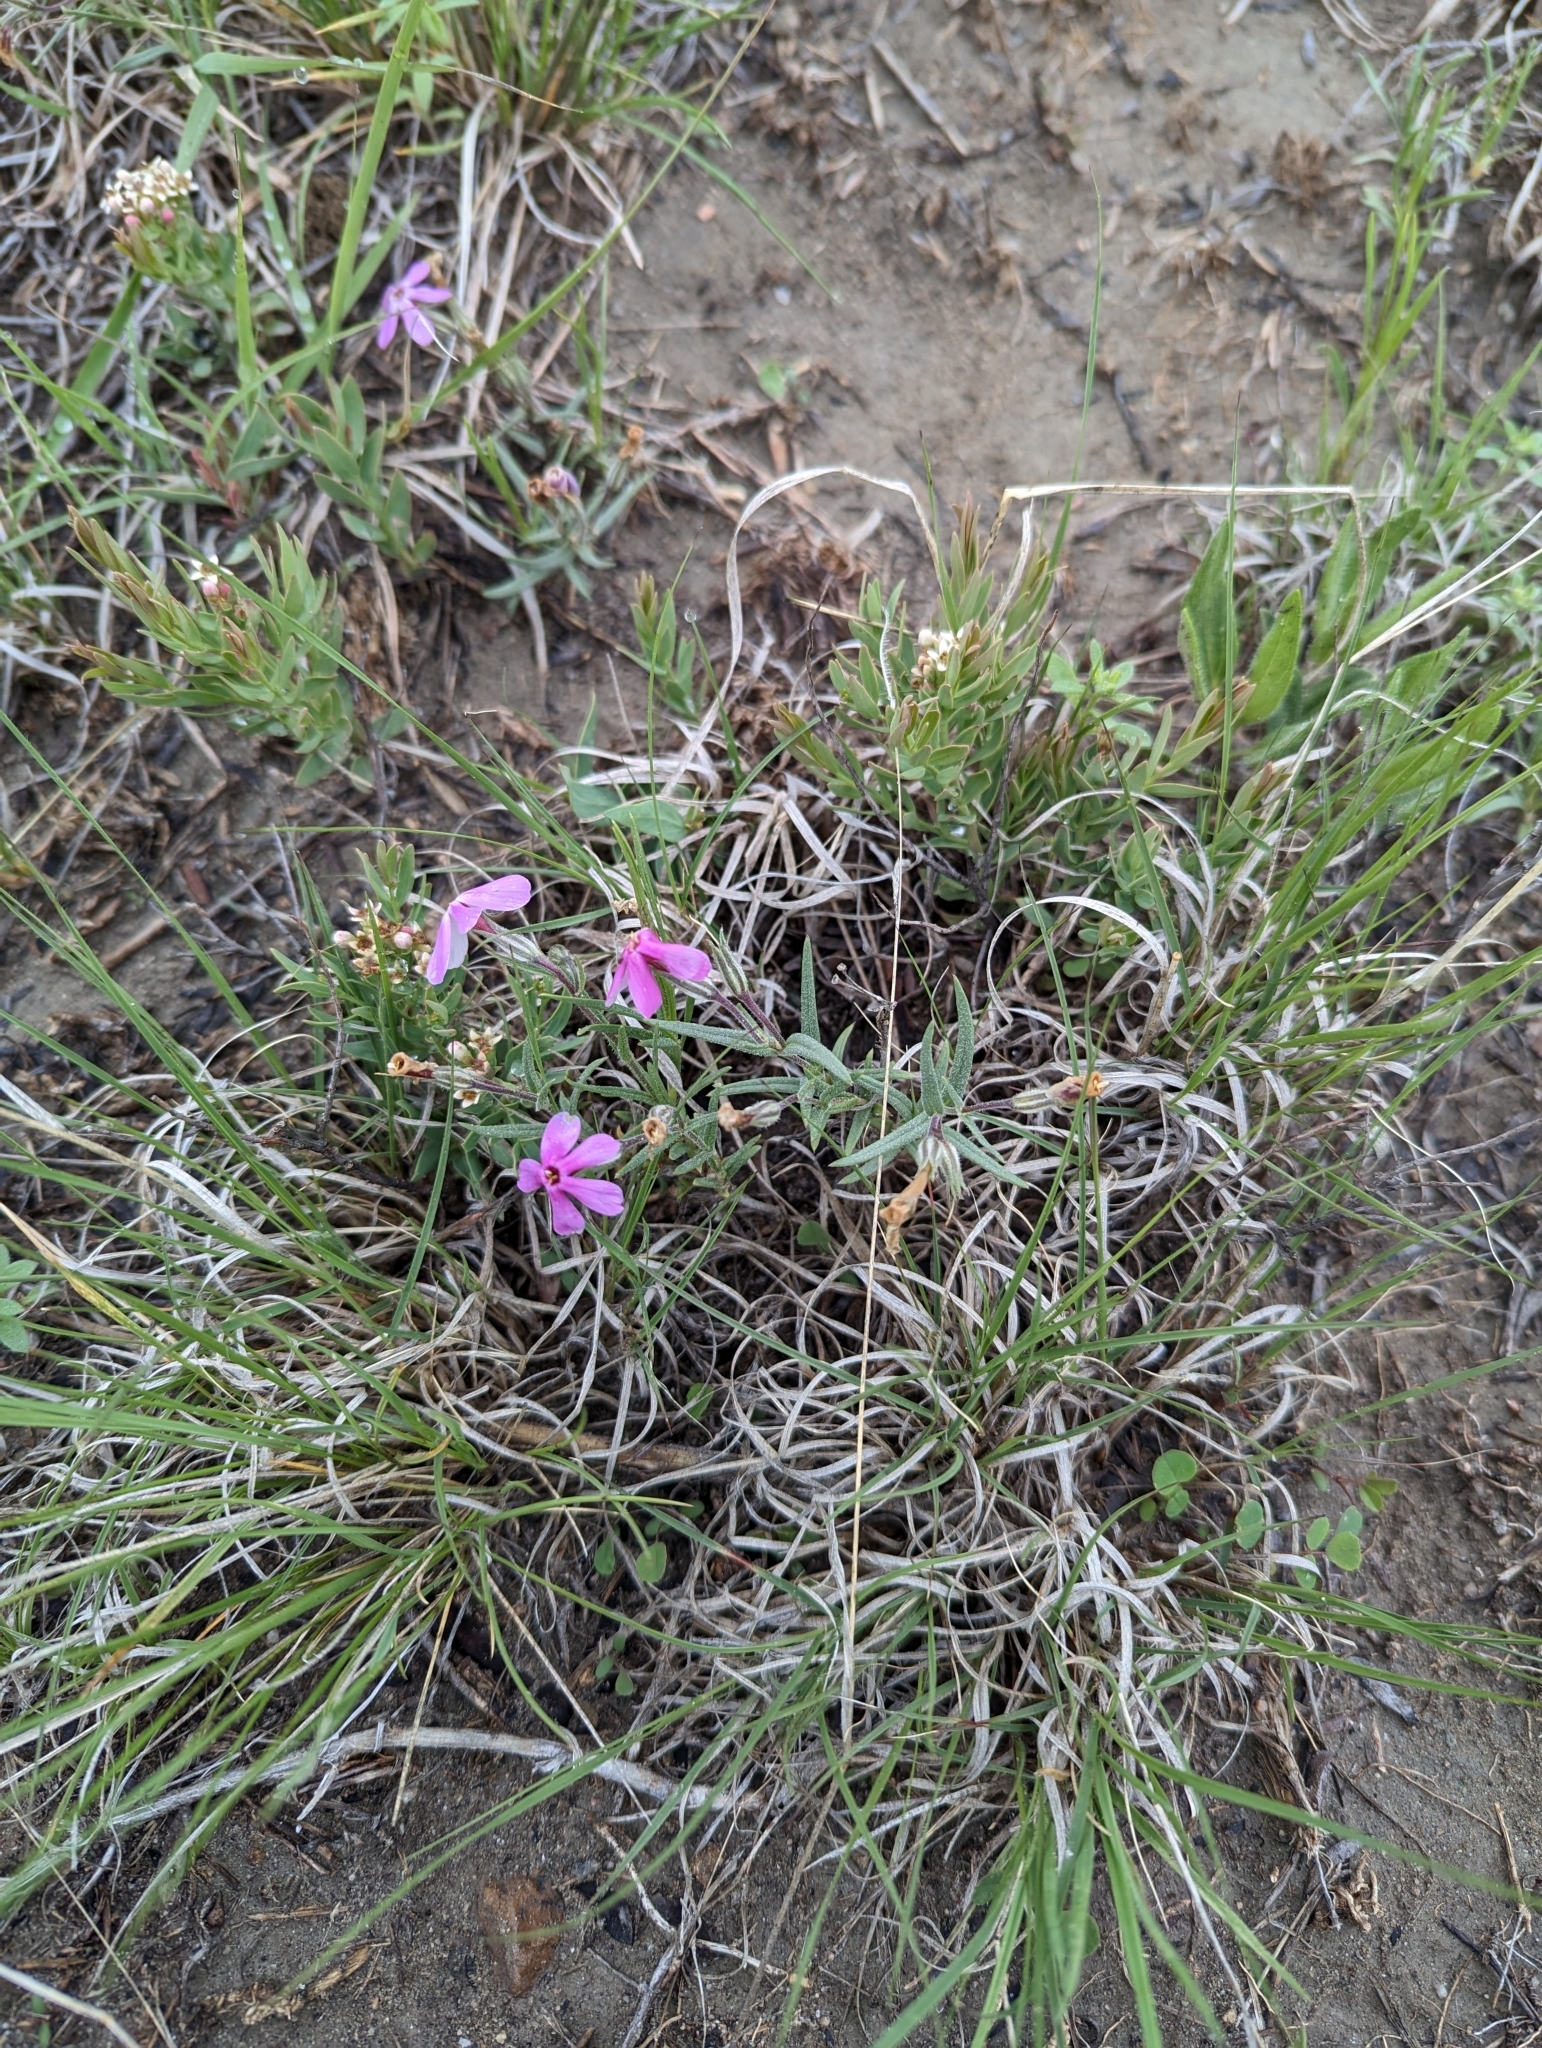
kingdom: Plantae
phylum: Tracheophyta
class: Magnoliopsida
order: Ericales
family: Polemoniaceae
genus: Phlox
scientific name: Phlox longifolia
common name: Longleaf phlox
